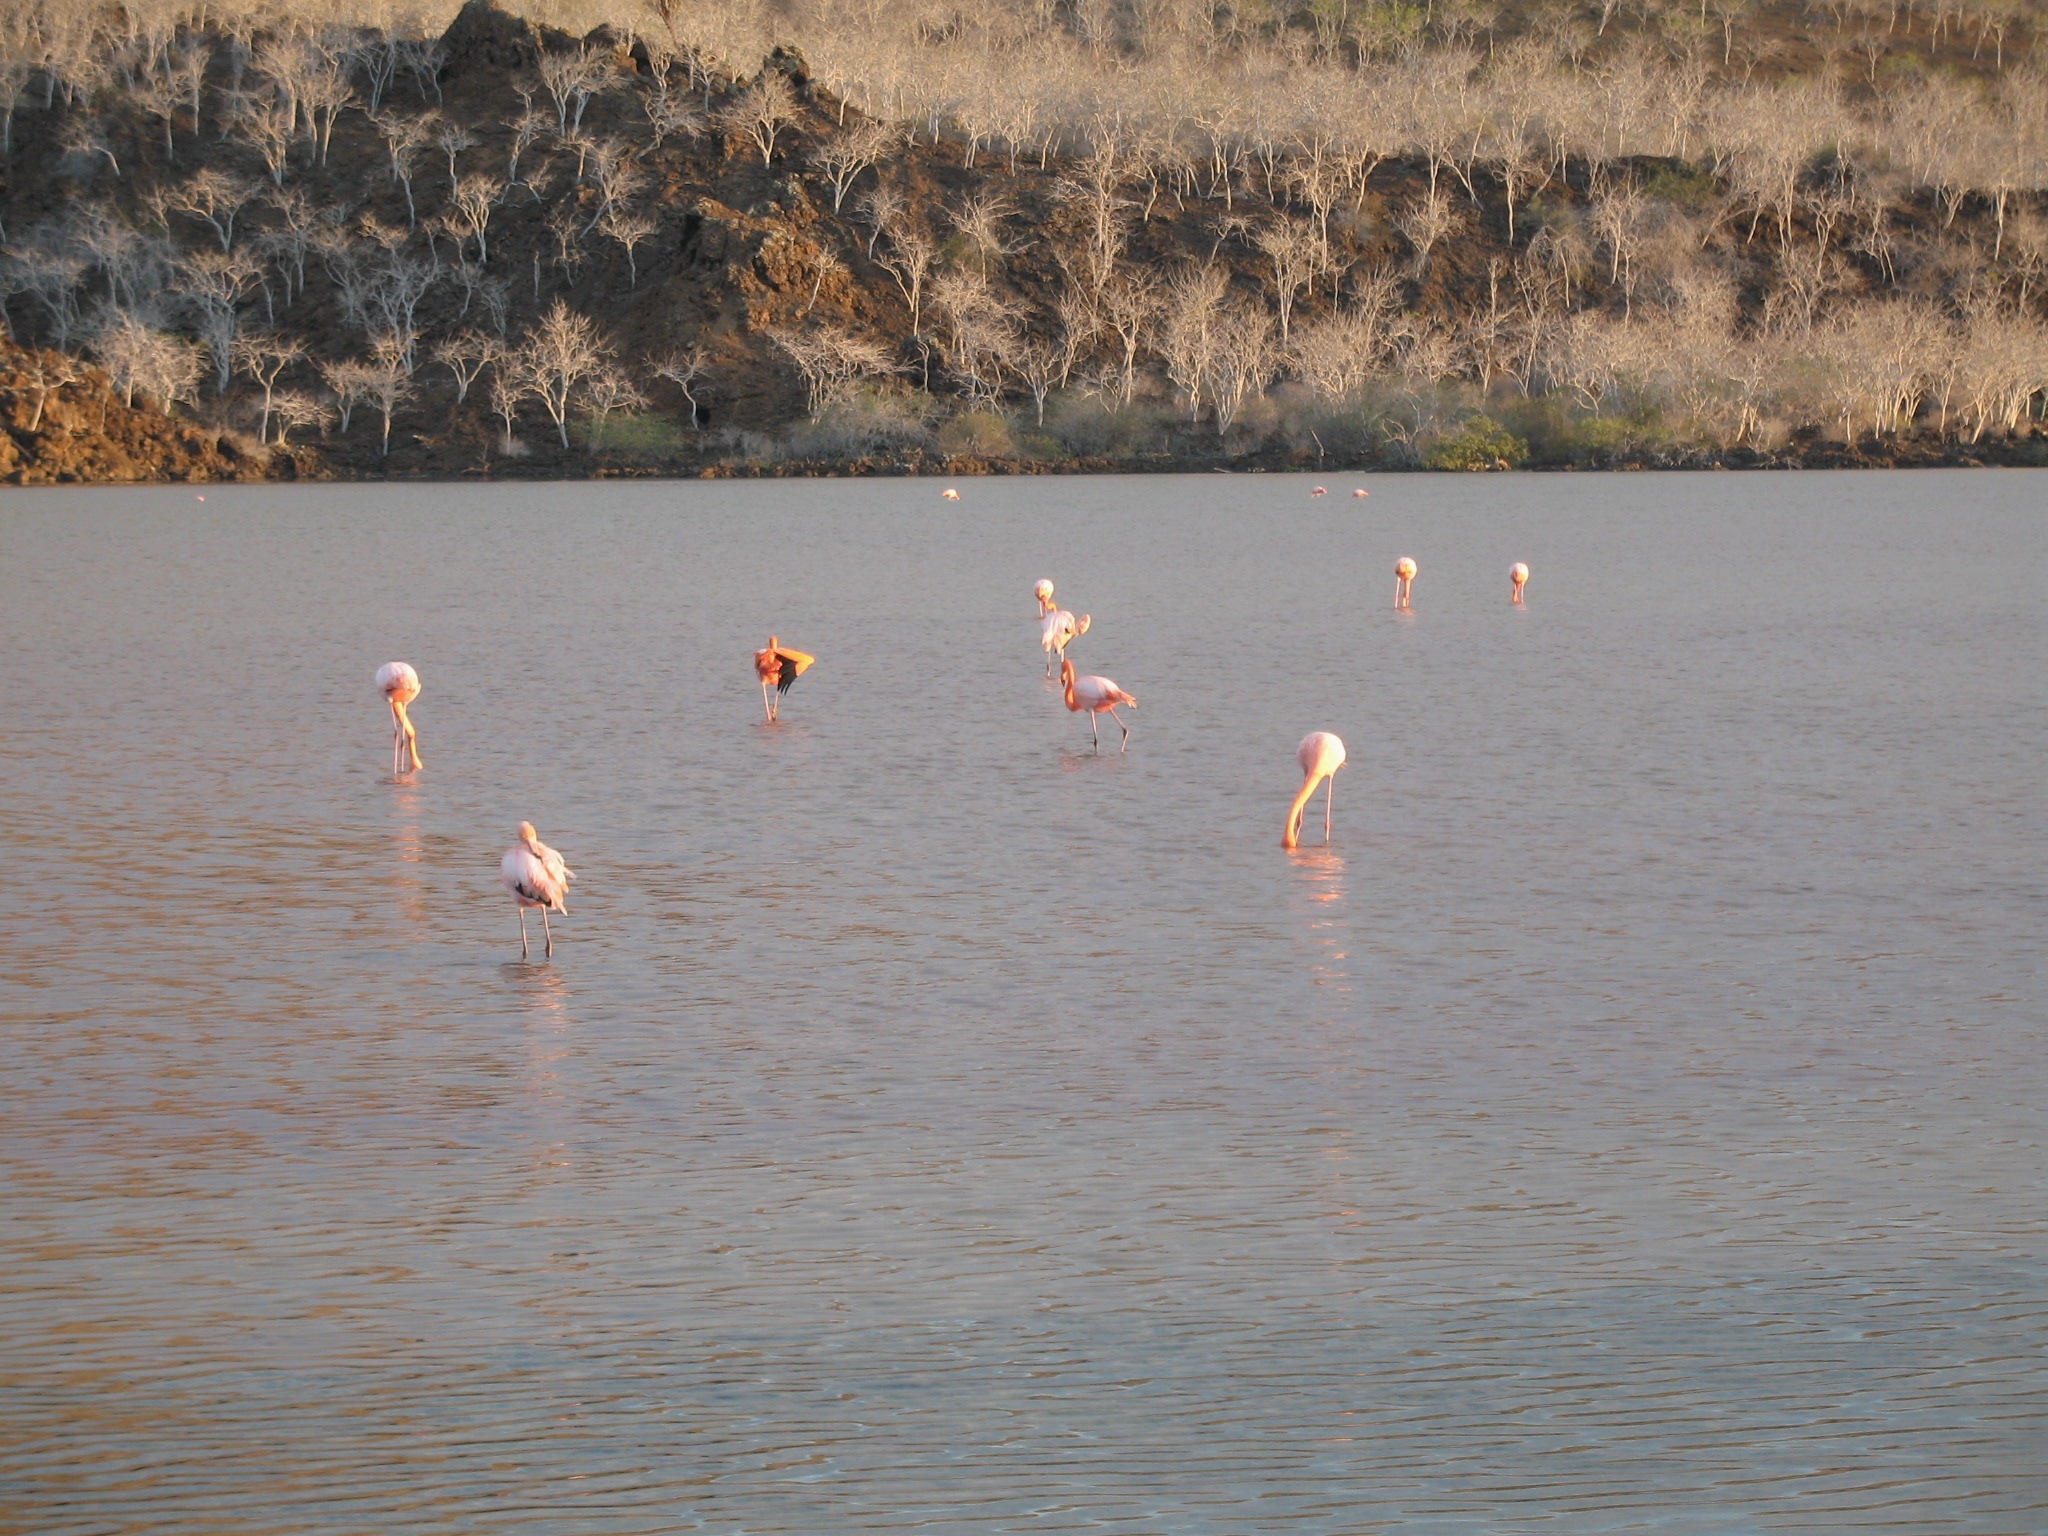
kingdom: Animalia
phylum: Chordata
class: Aves
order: Phoenicopteriformes
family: Phoenicopteridae
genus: Phoenicopterus
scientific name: Phoenicopterus ruber
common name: American flamingo
